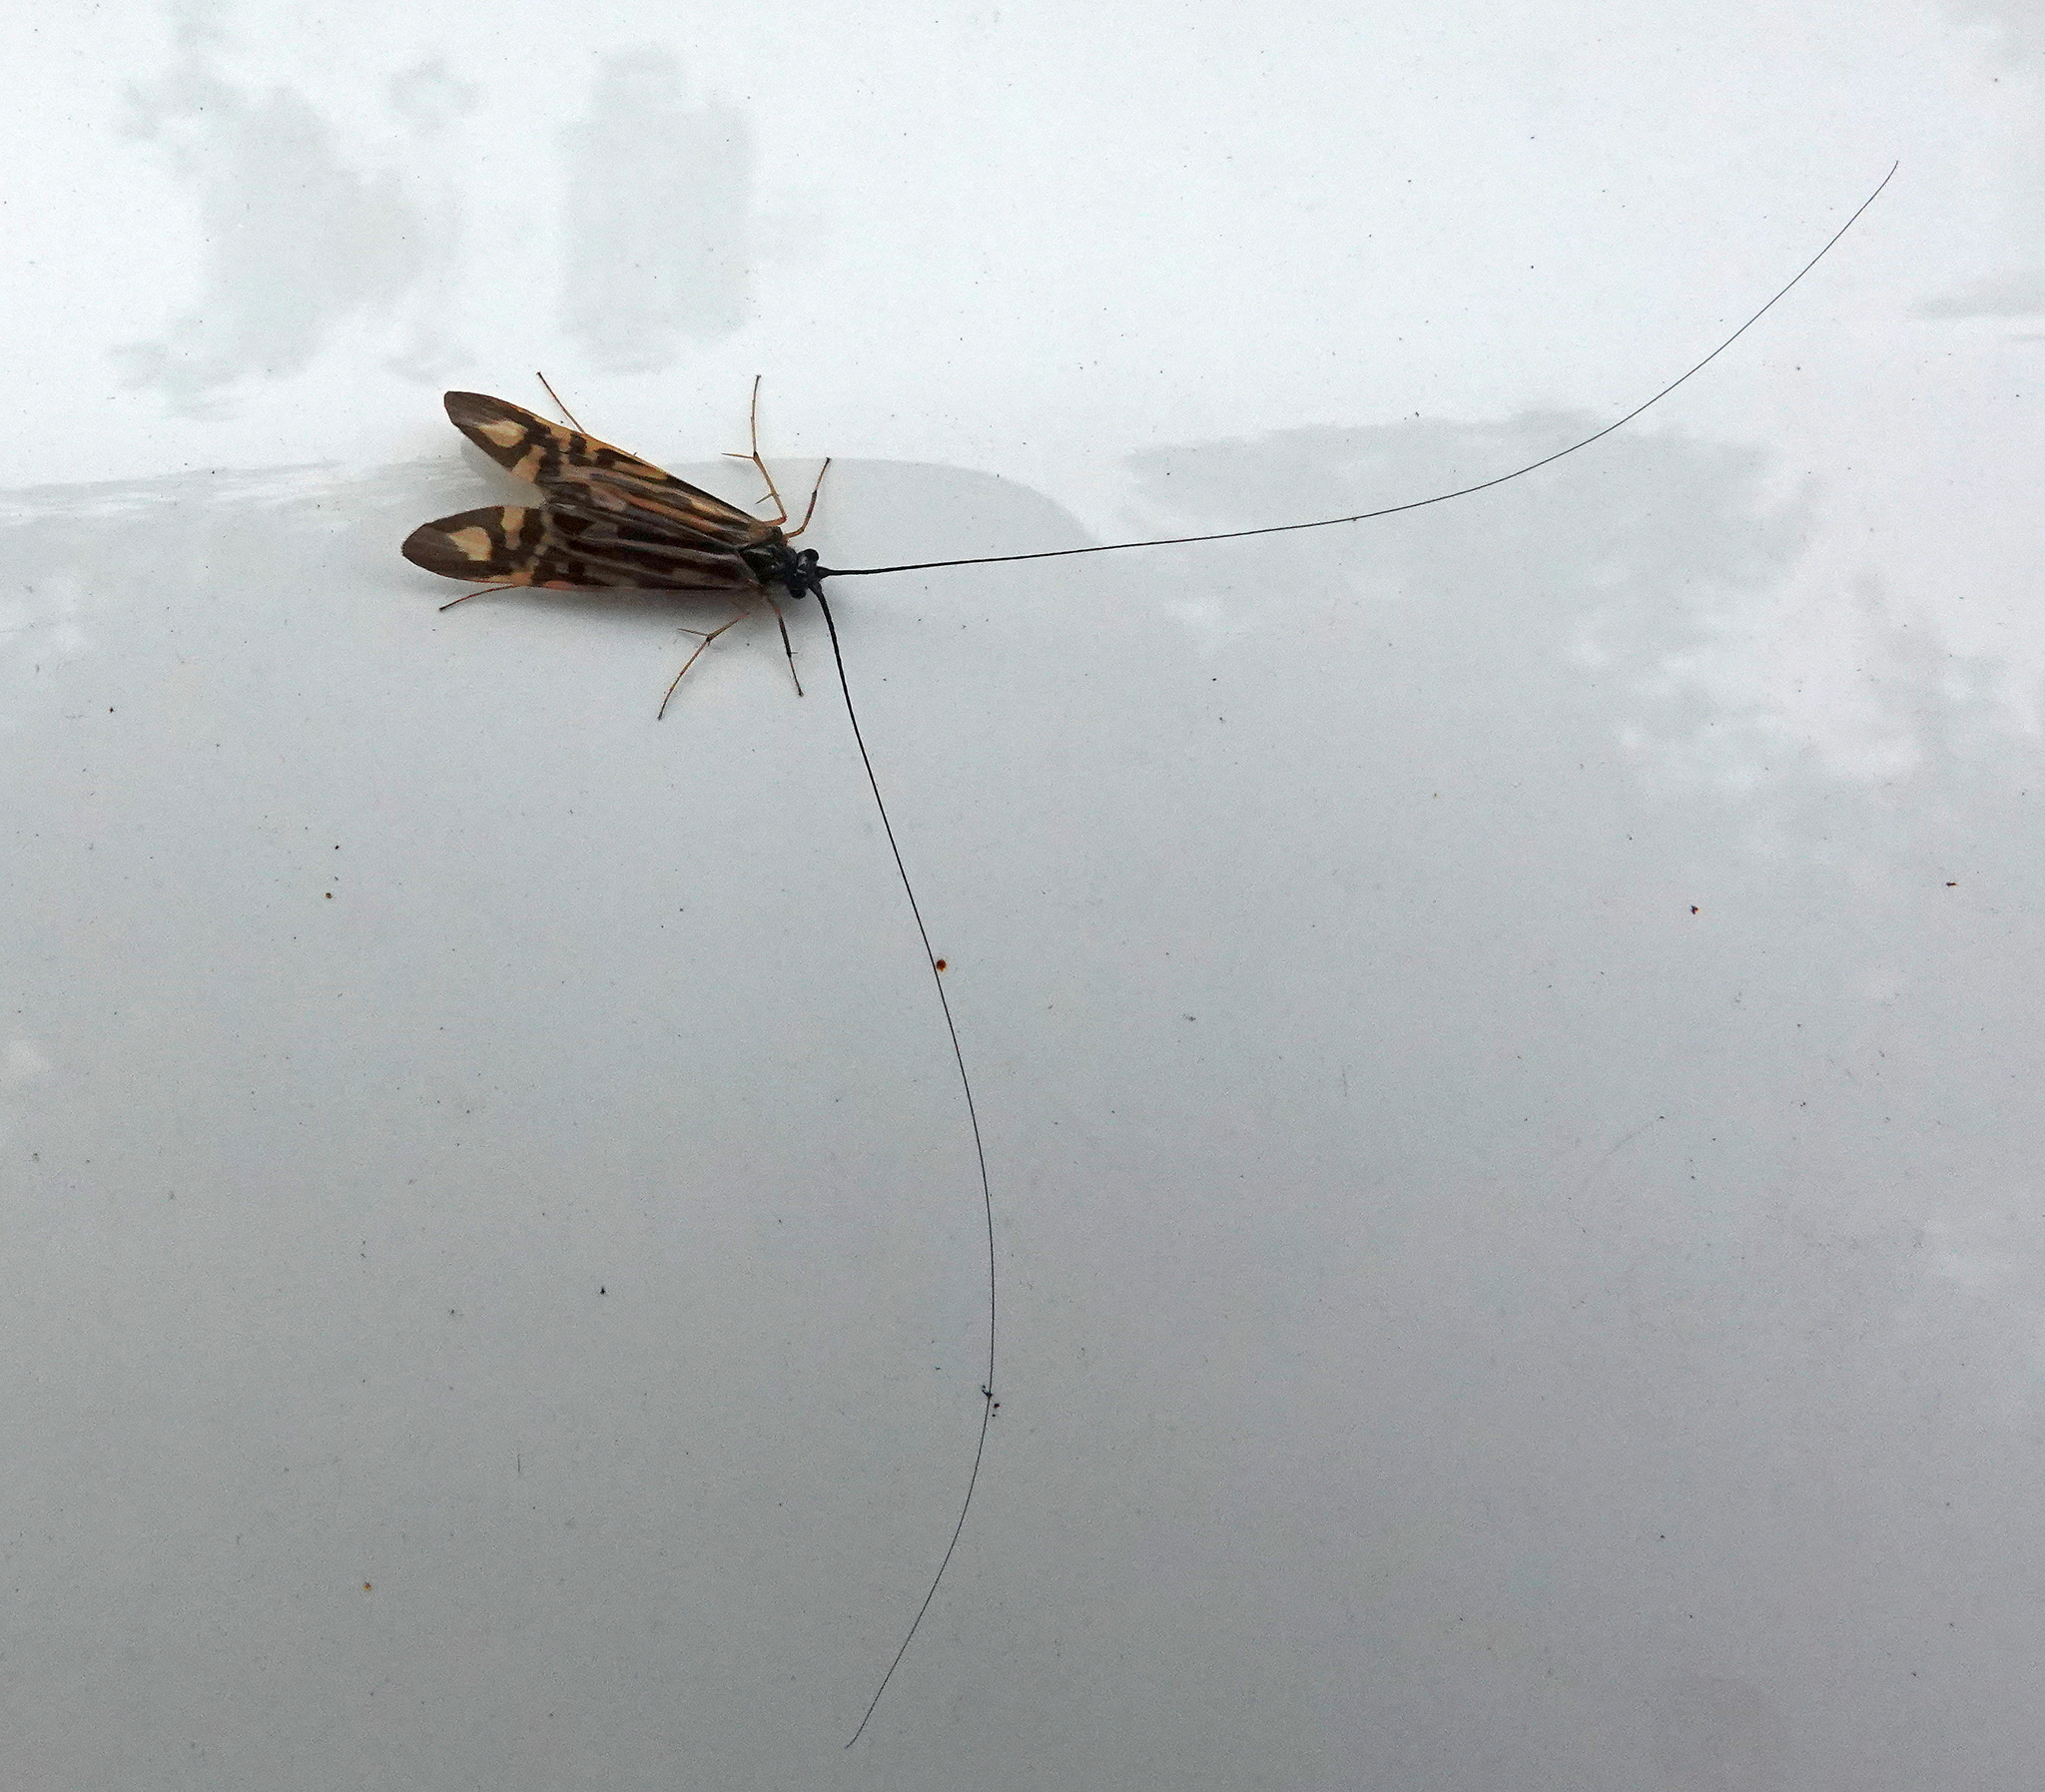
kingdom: Animalia
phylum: Arthropoda
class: Insecta
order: Trichoptera
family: Hydropsychidae
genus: Macrostemum
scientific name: Macrostemum zebratum
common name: Zebra caddisfly
